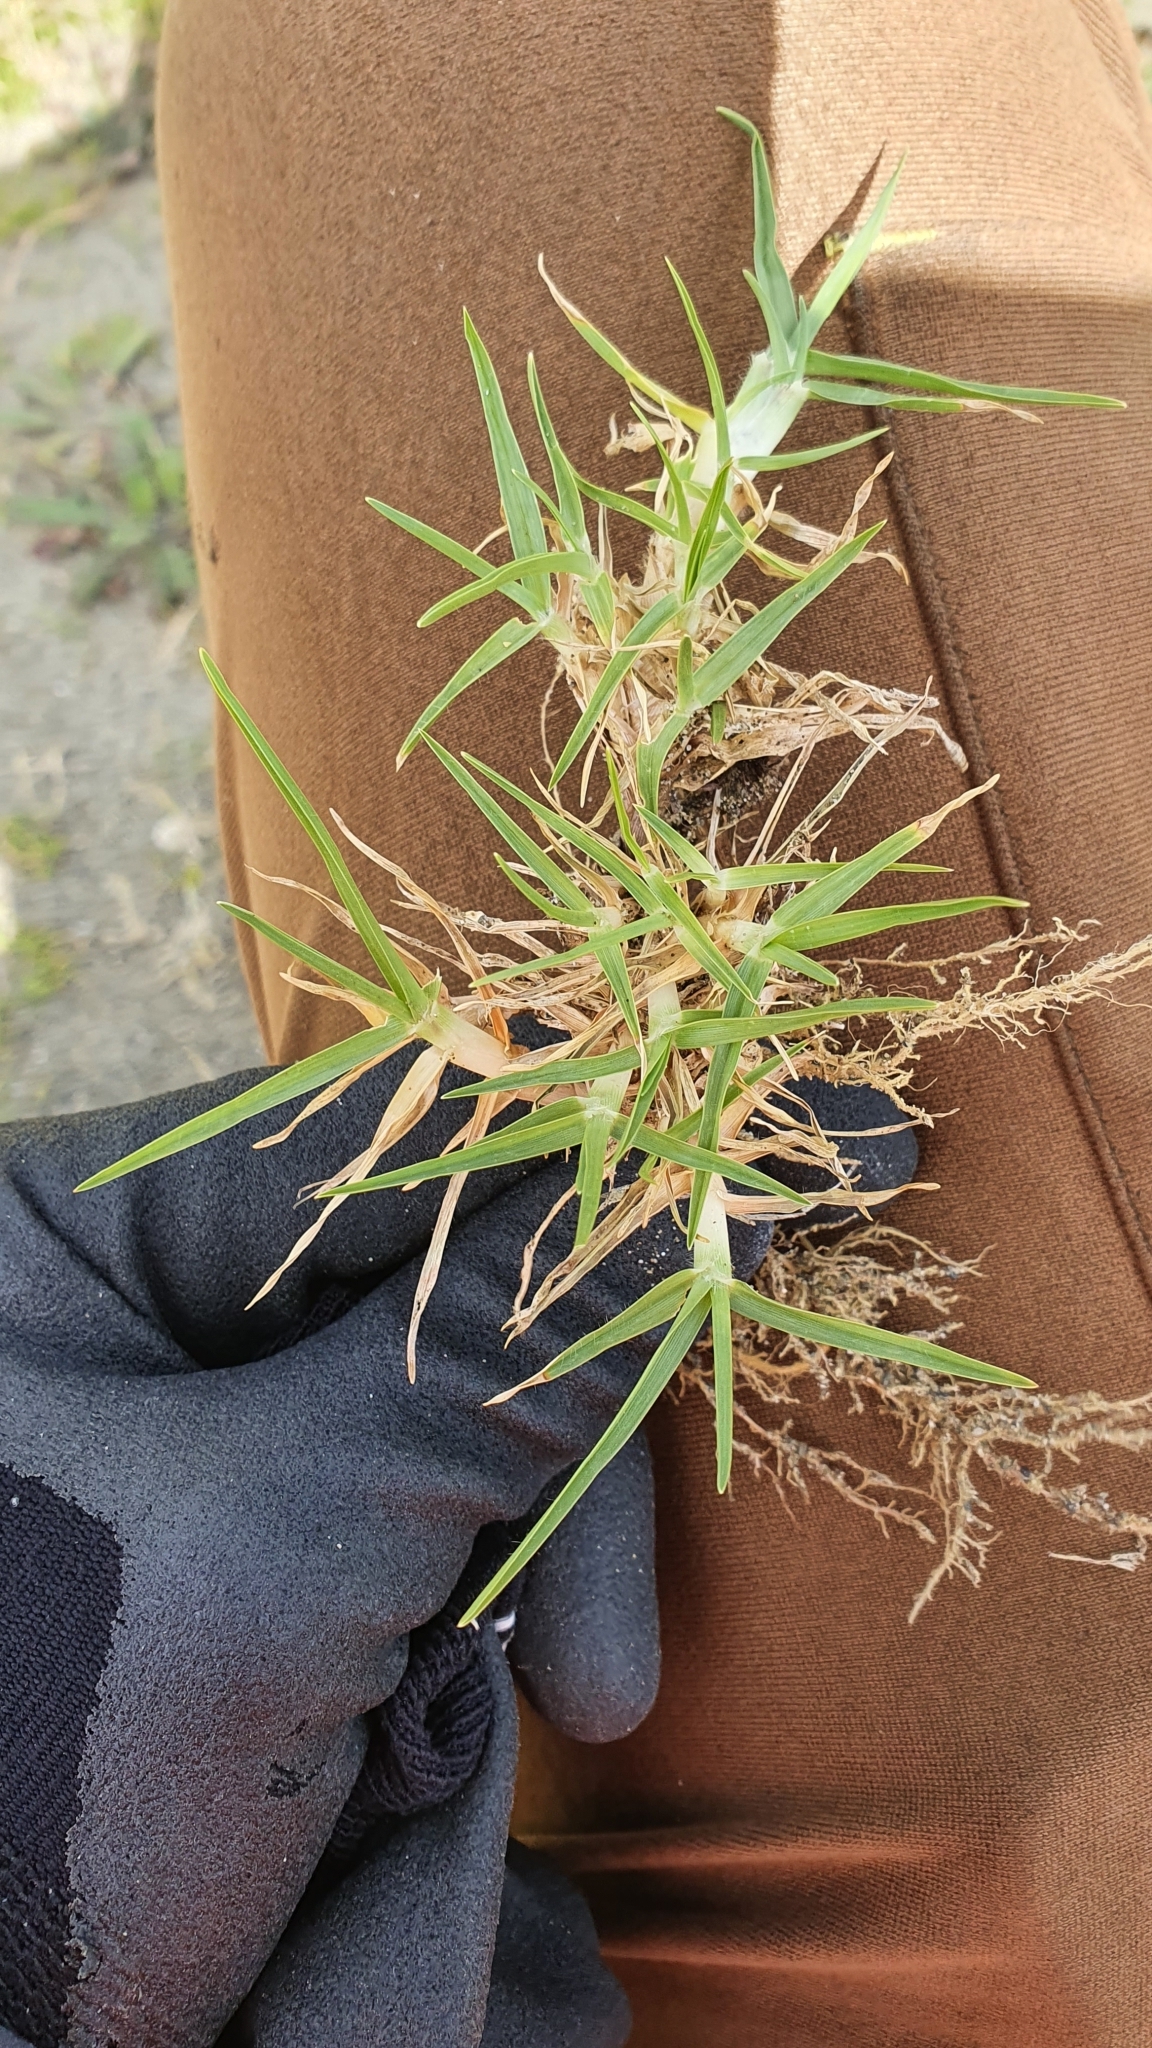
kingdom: Plantae
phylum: Tracheophyta
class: Liliopsida
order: Poales
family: Poaceae
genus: Cenchrus
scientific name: Cenchrus clandestinus
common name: Kikuyugrass
